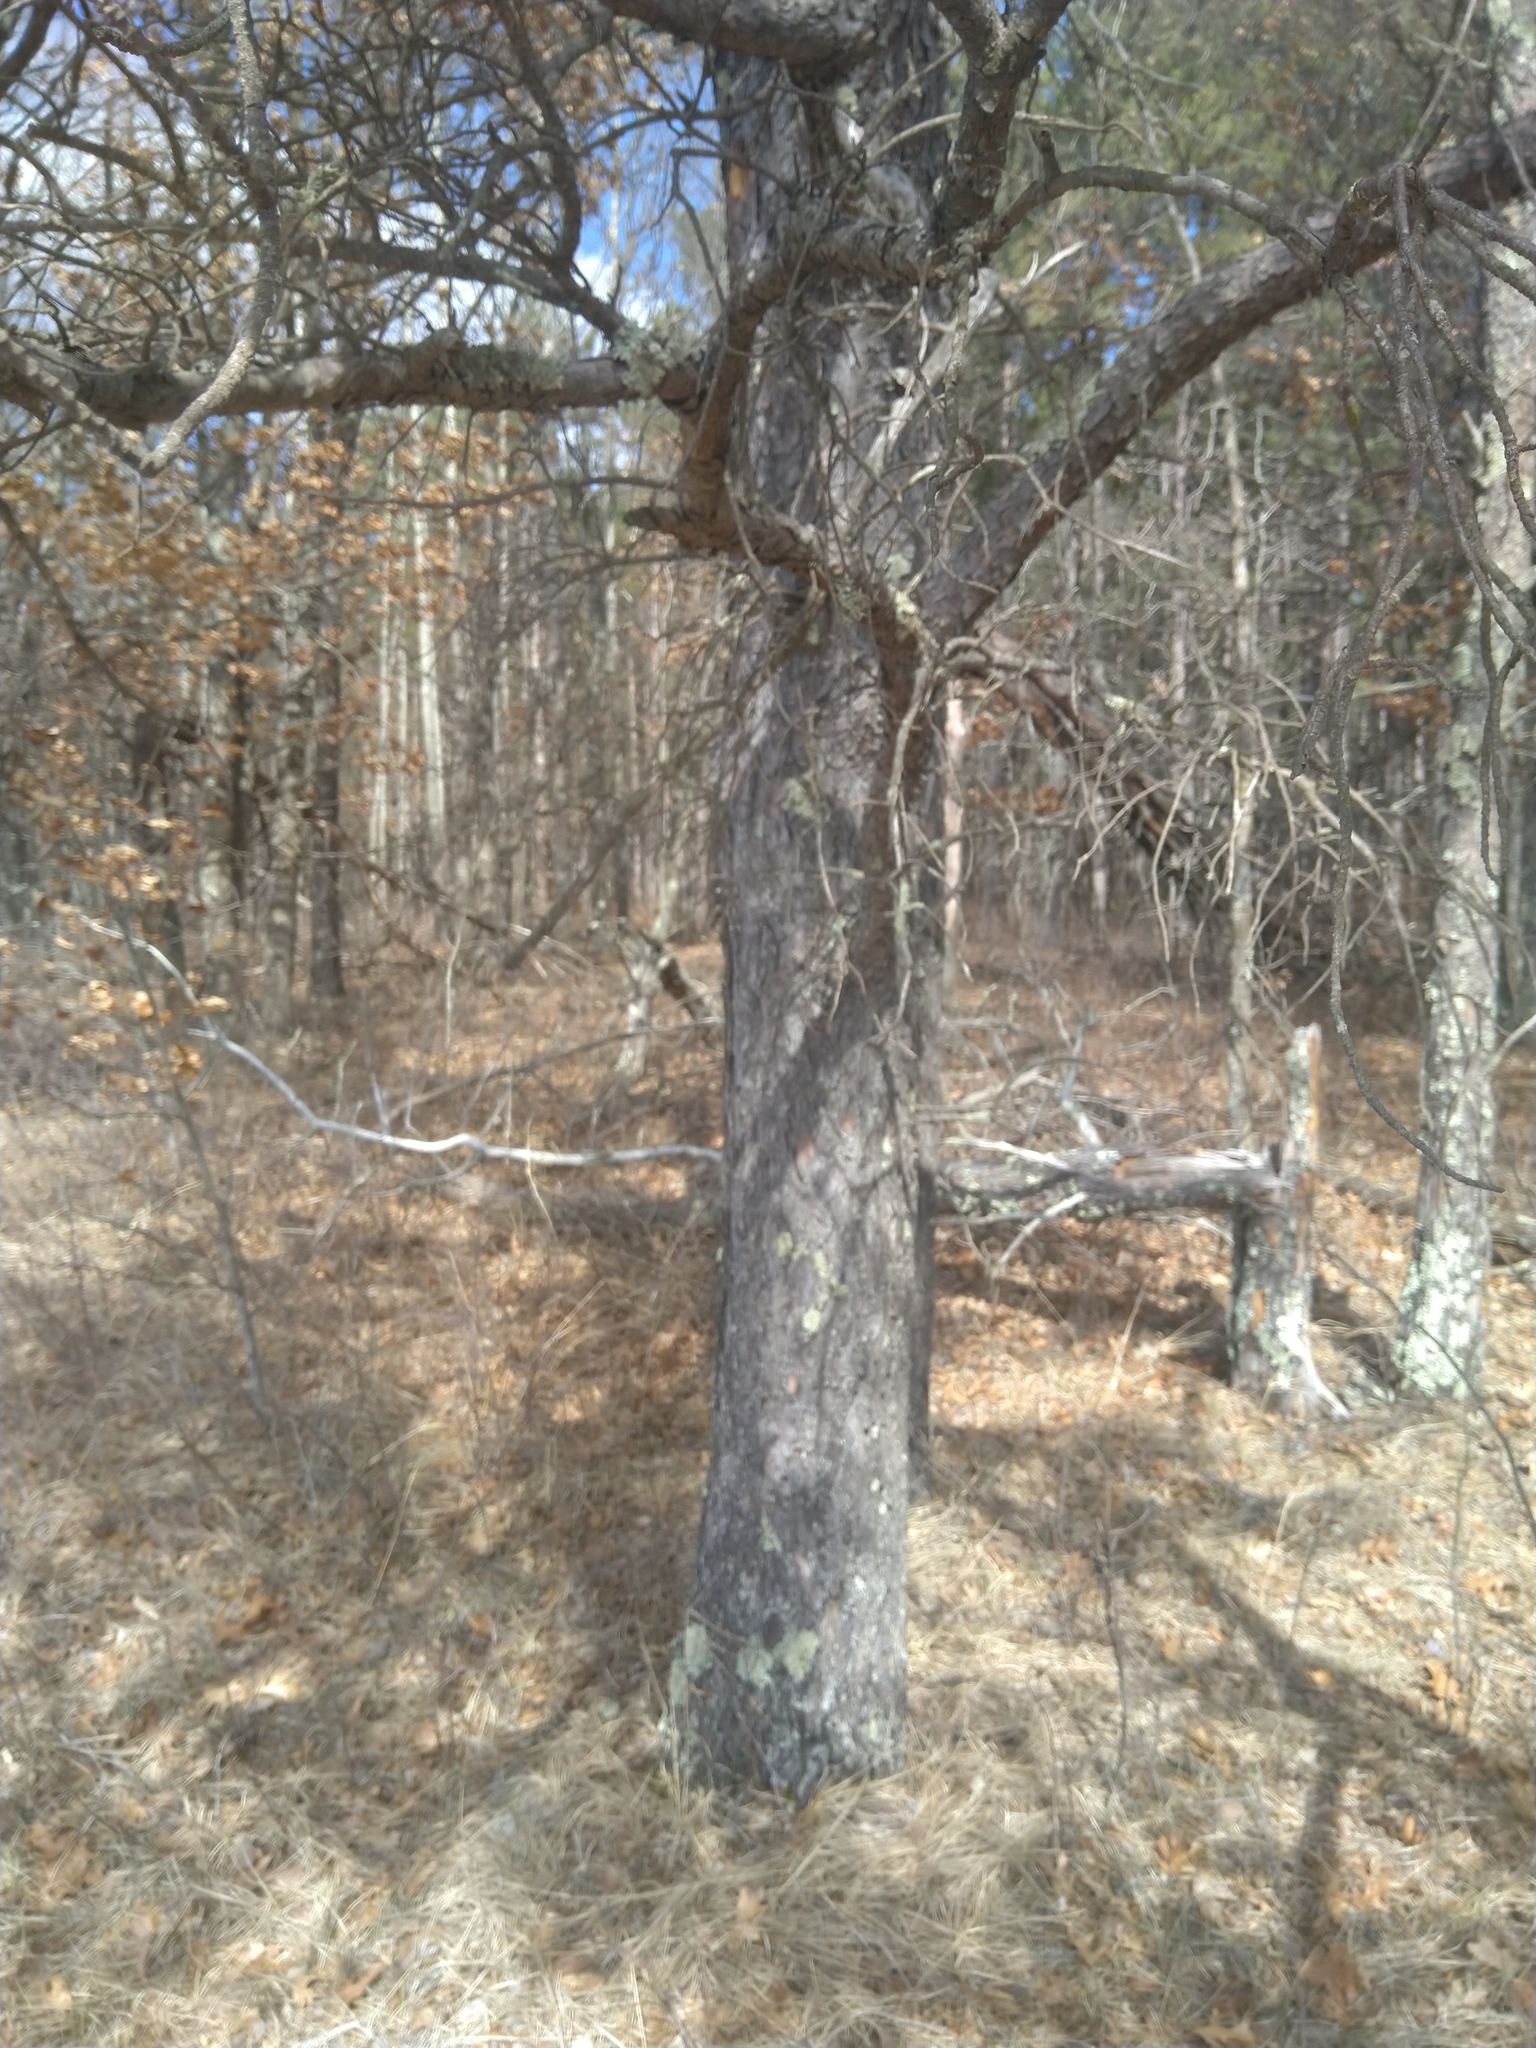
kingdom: Plantae
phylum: Tracheophyta
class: Pinopsida
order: Pinales
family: Pinaceae
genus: Pinus
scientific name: Pinus banksiana
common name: Jack pine
